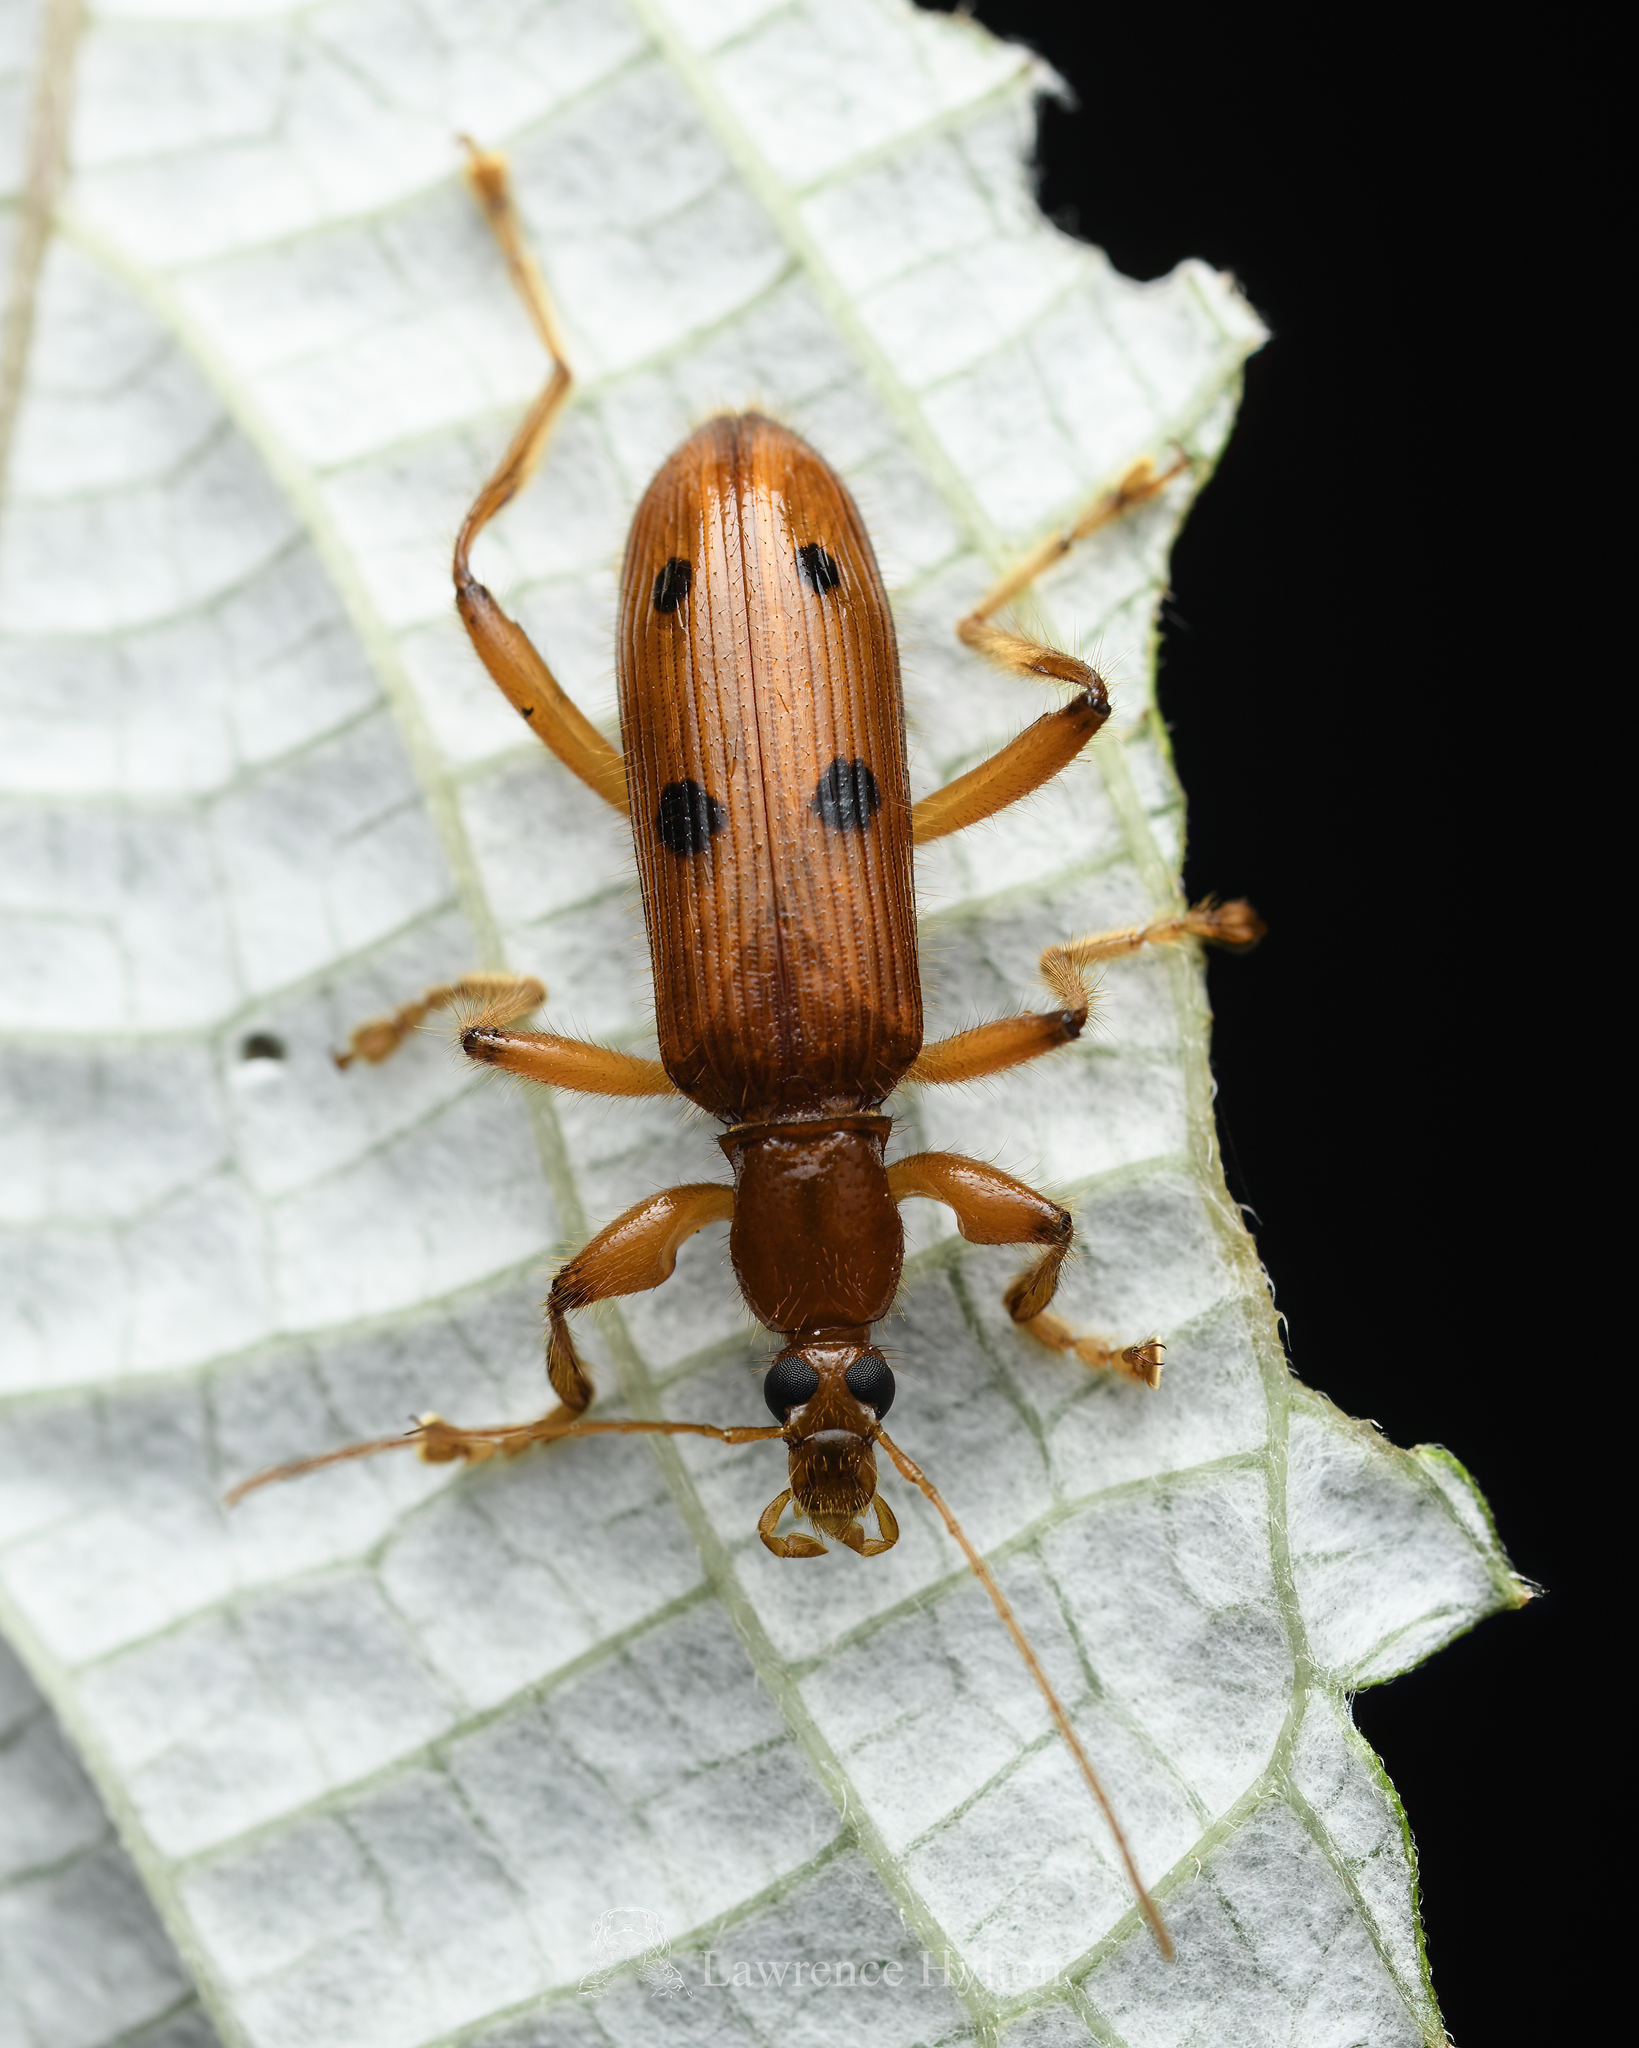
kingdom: Animalia
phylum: Arthropoda
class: Insecta
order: Coleoptera
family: Tenebrionidae
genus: Exostira
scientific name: Exostira
